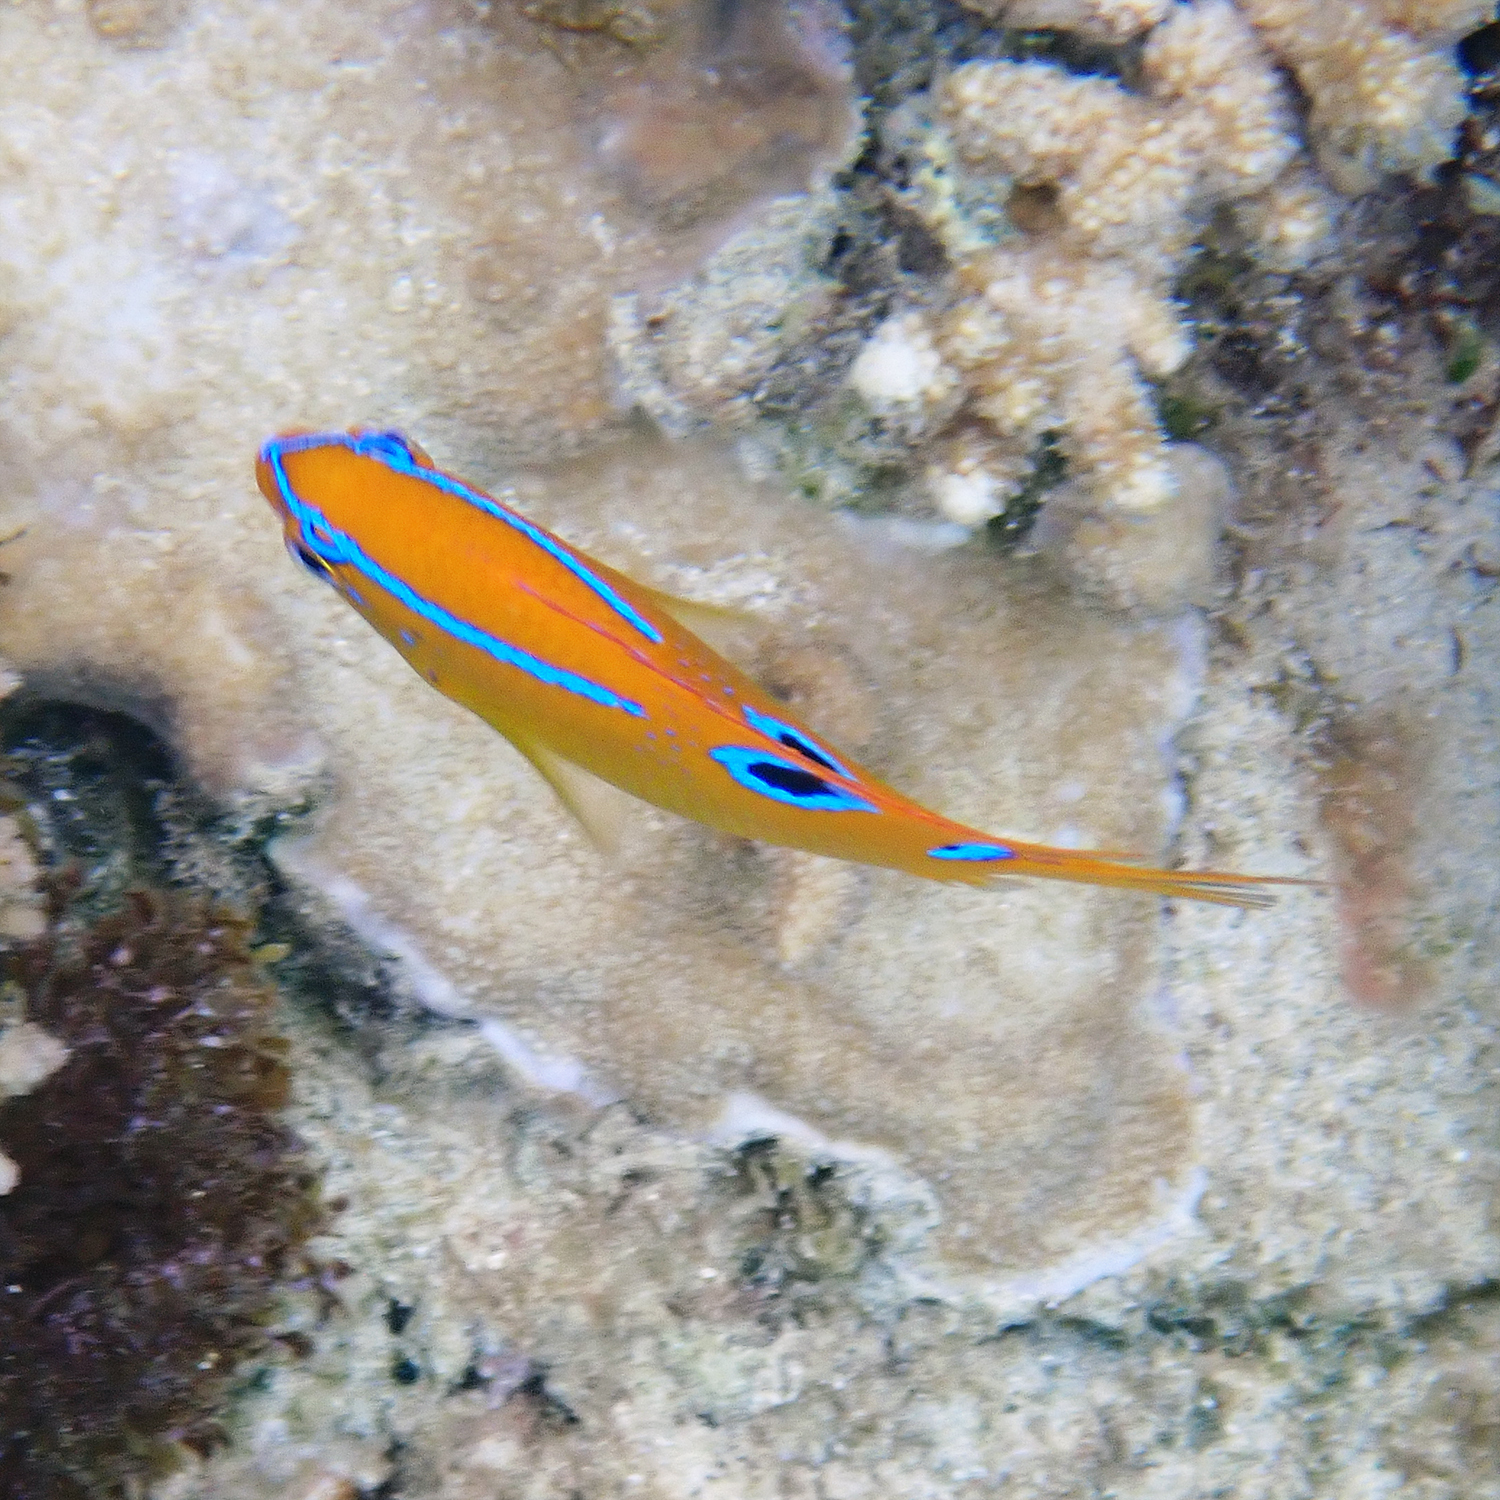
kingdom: Animalia
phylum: Chordata
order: Perciformes
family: Pomacentridae
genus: Neoglyphidodon
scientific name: Neoglyphidodon polyacanthus
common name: Multi-spined damsel
